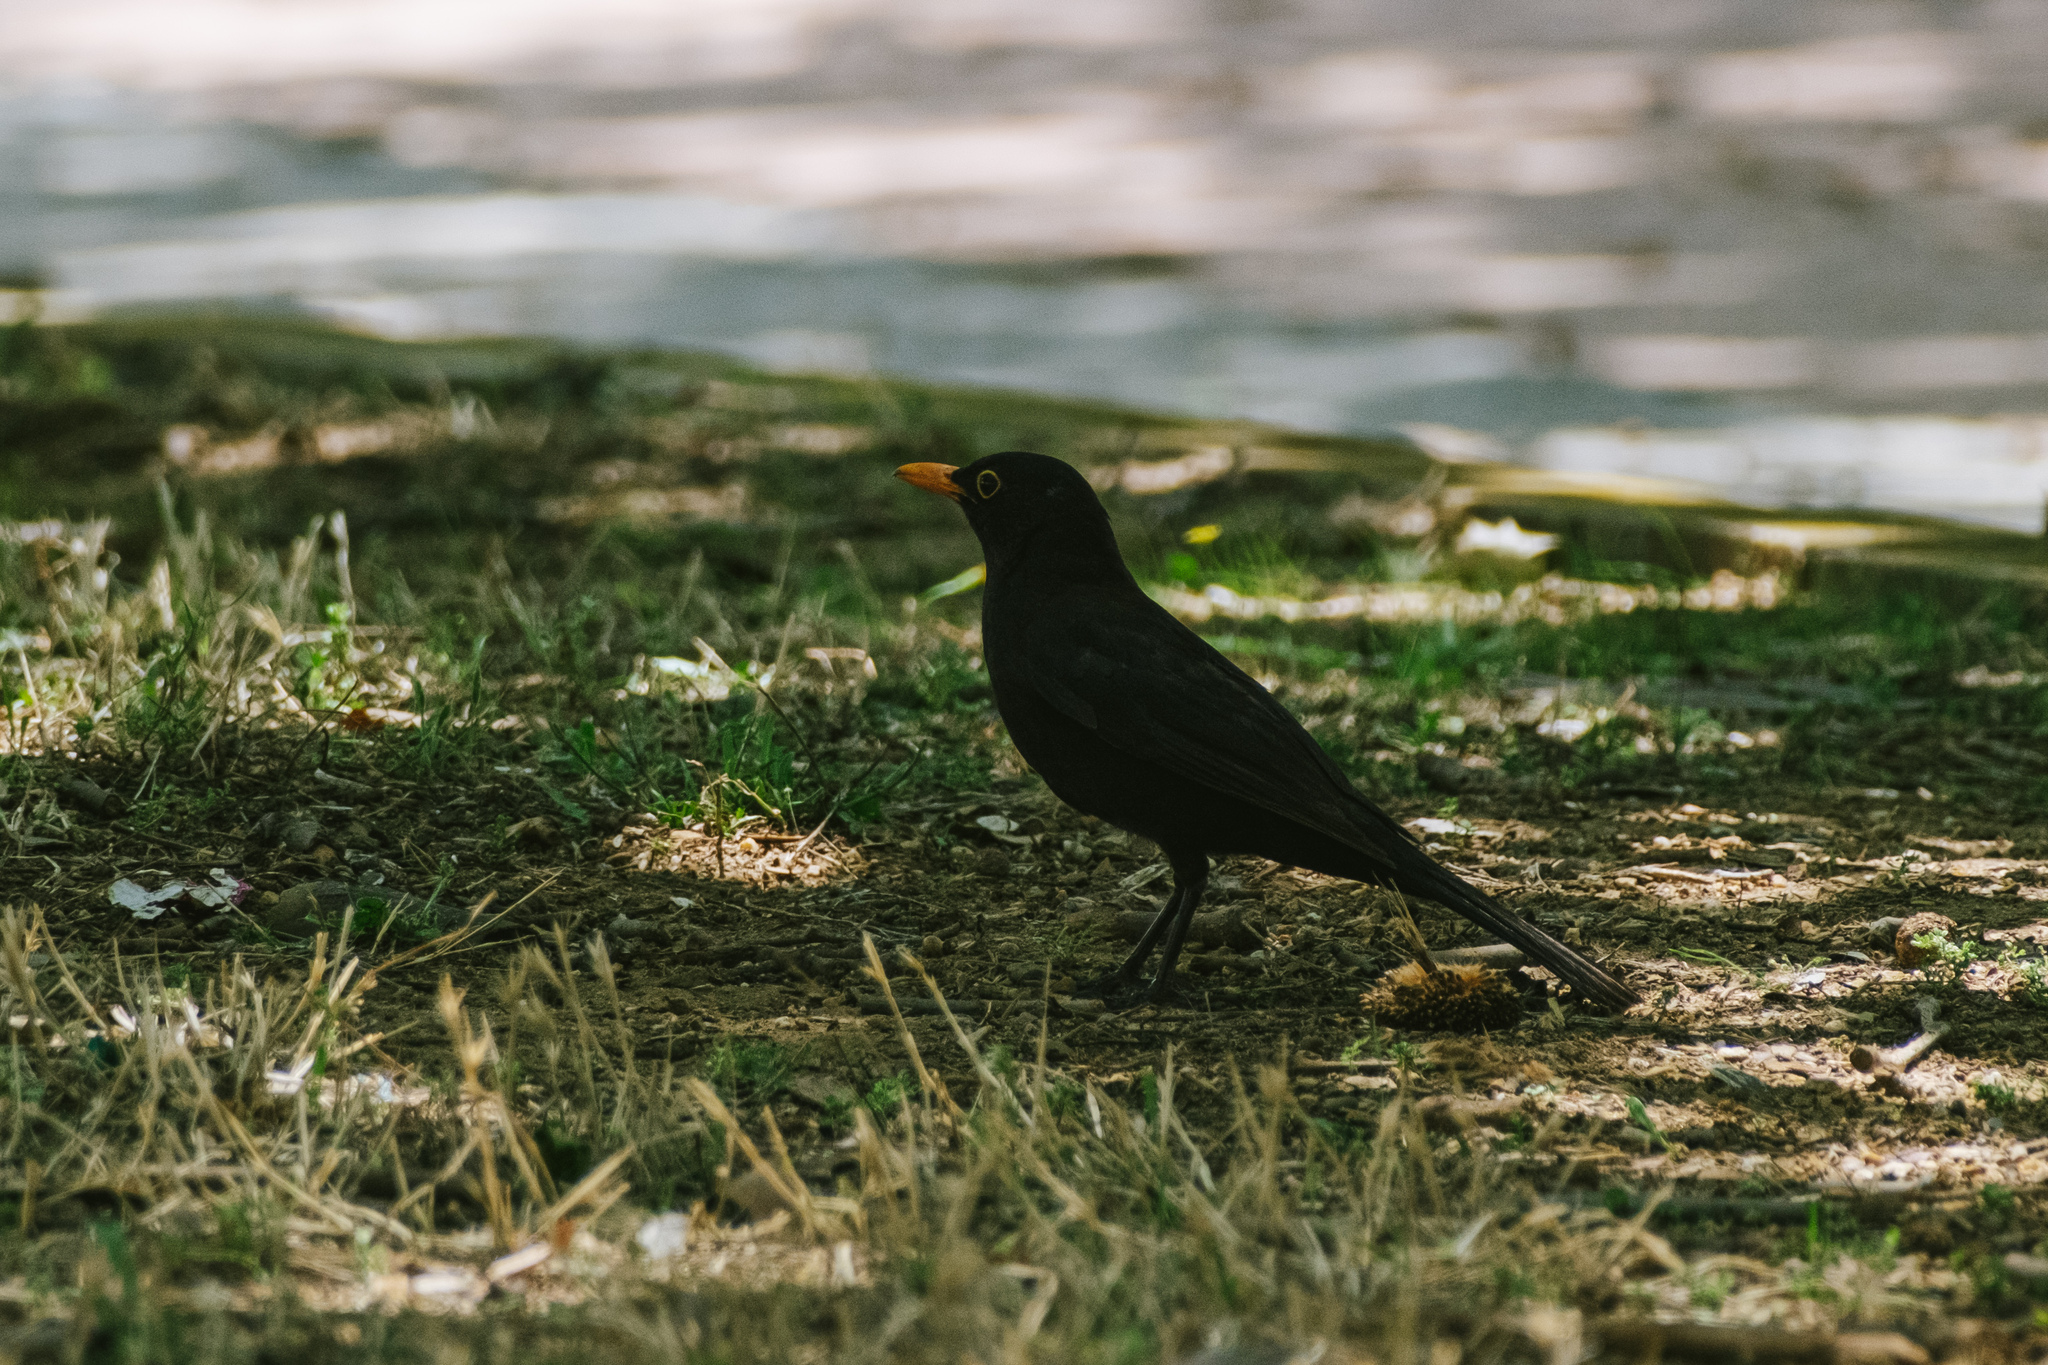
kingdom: Animalia
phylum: Chordata
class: Aves
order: Passeriformes
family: Turdidae
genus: Turdus
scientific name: Turdus merula
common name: Common blackbird
